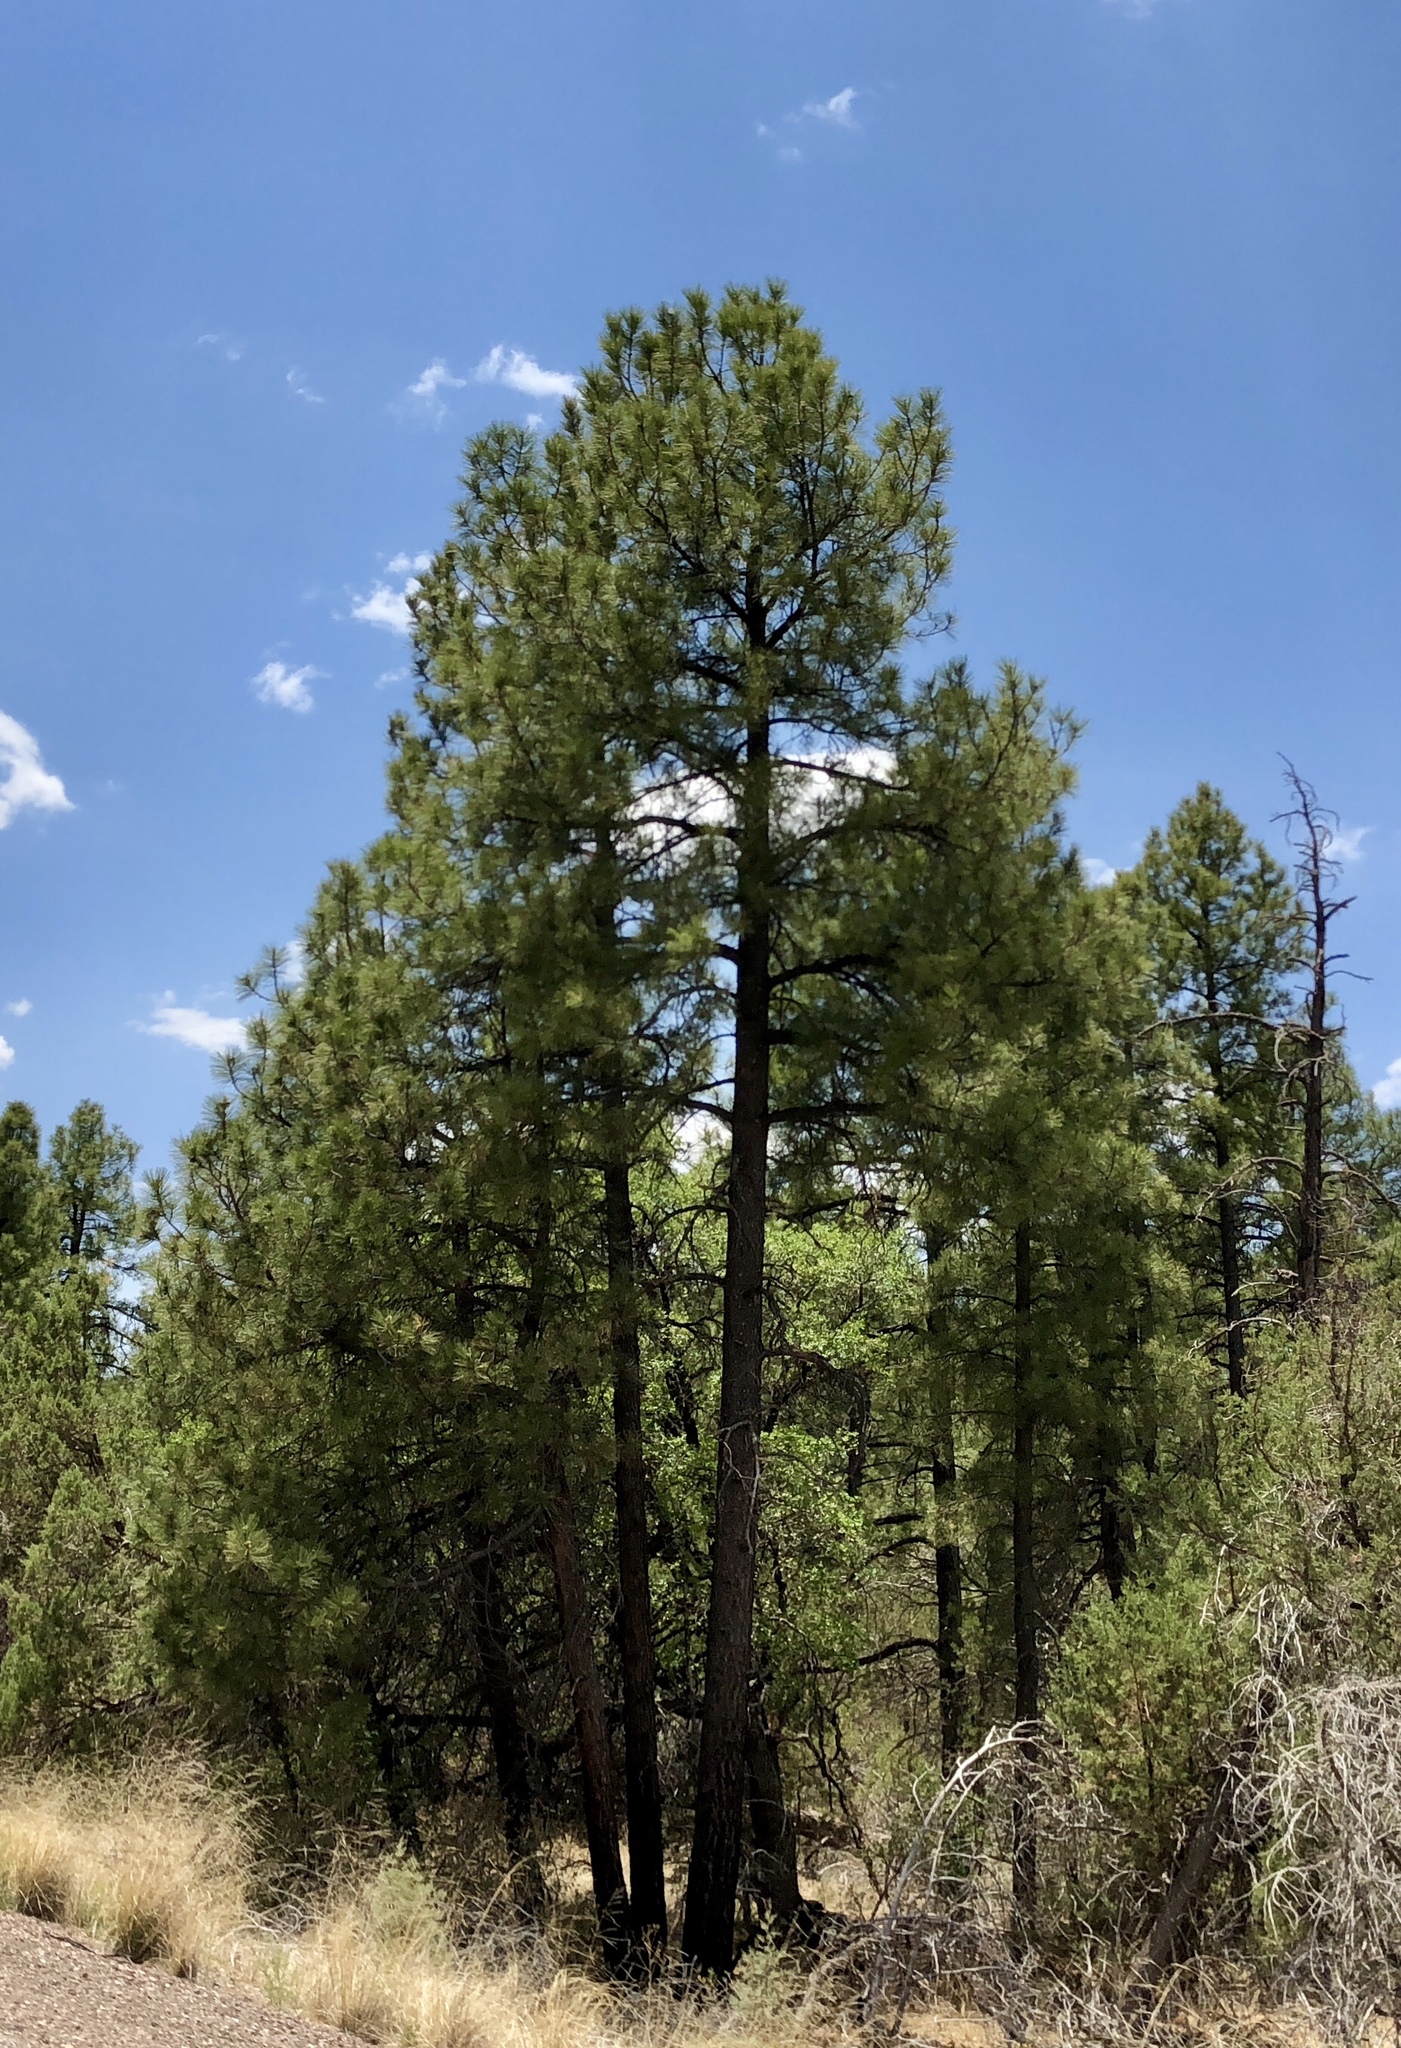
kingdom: Plantae
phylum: Tracheophyta
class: Pinopsida
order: Pinales
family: Pinaceae
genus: Pinus
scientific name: Pinus ponderosa
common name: Western yellow-pine
